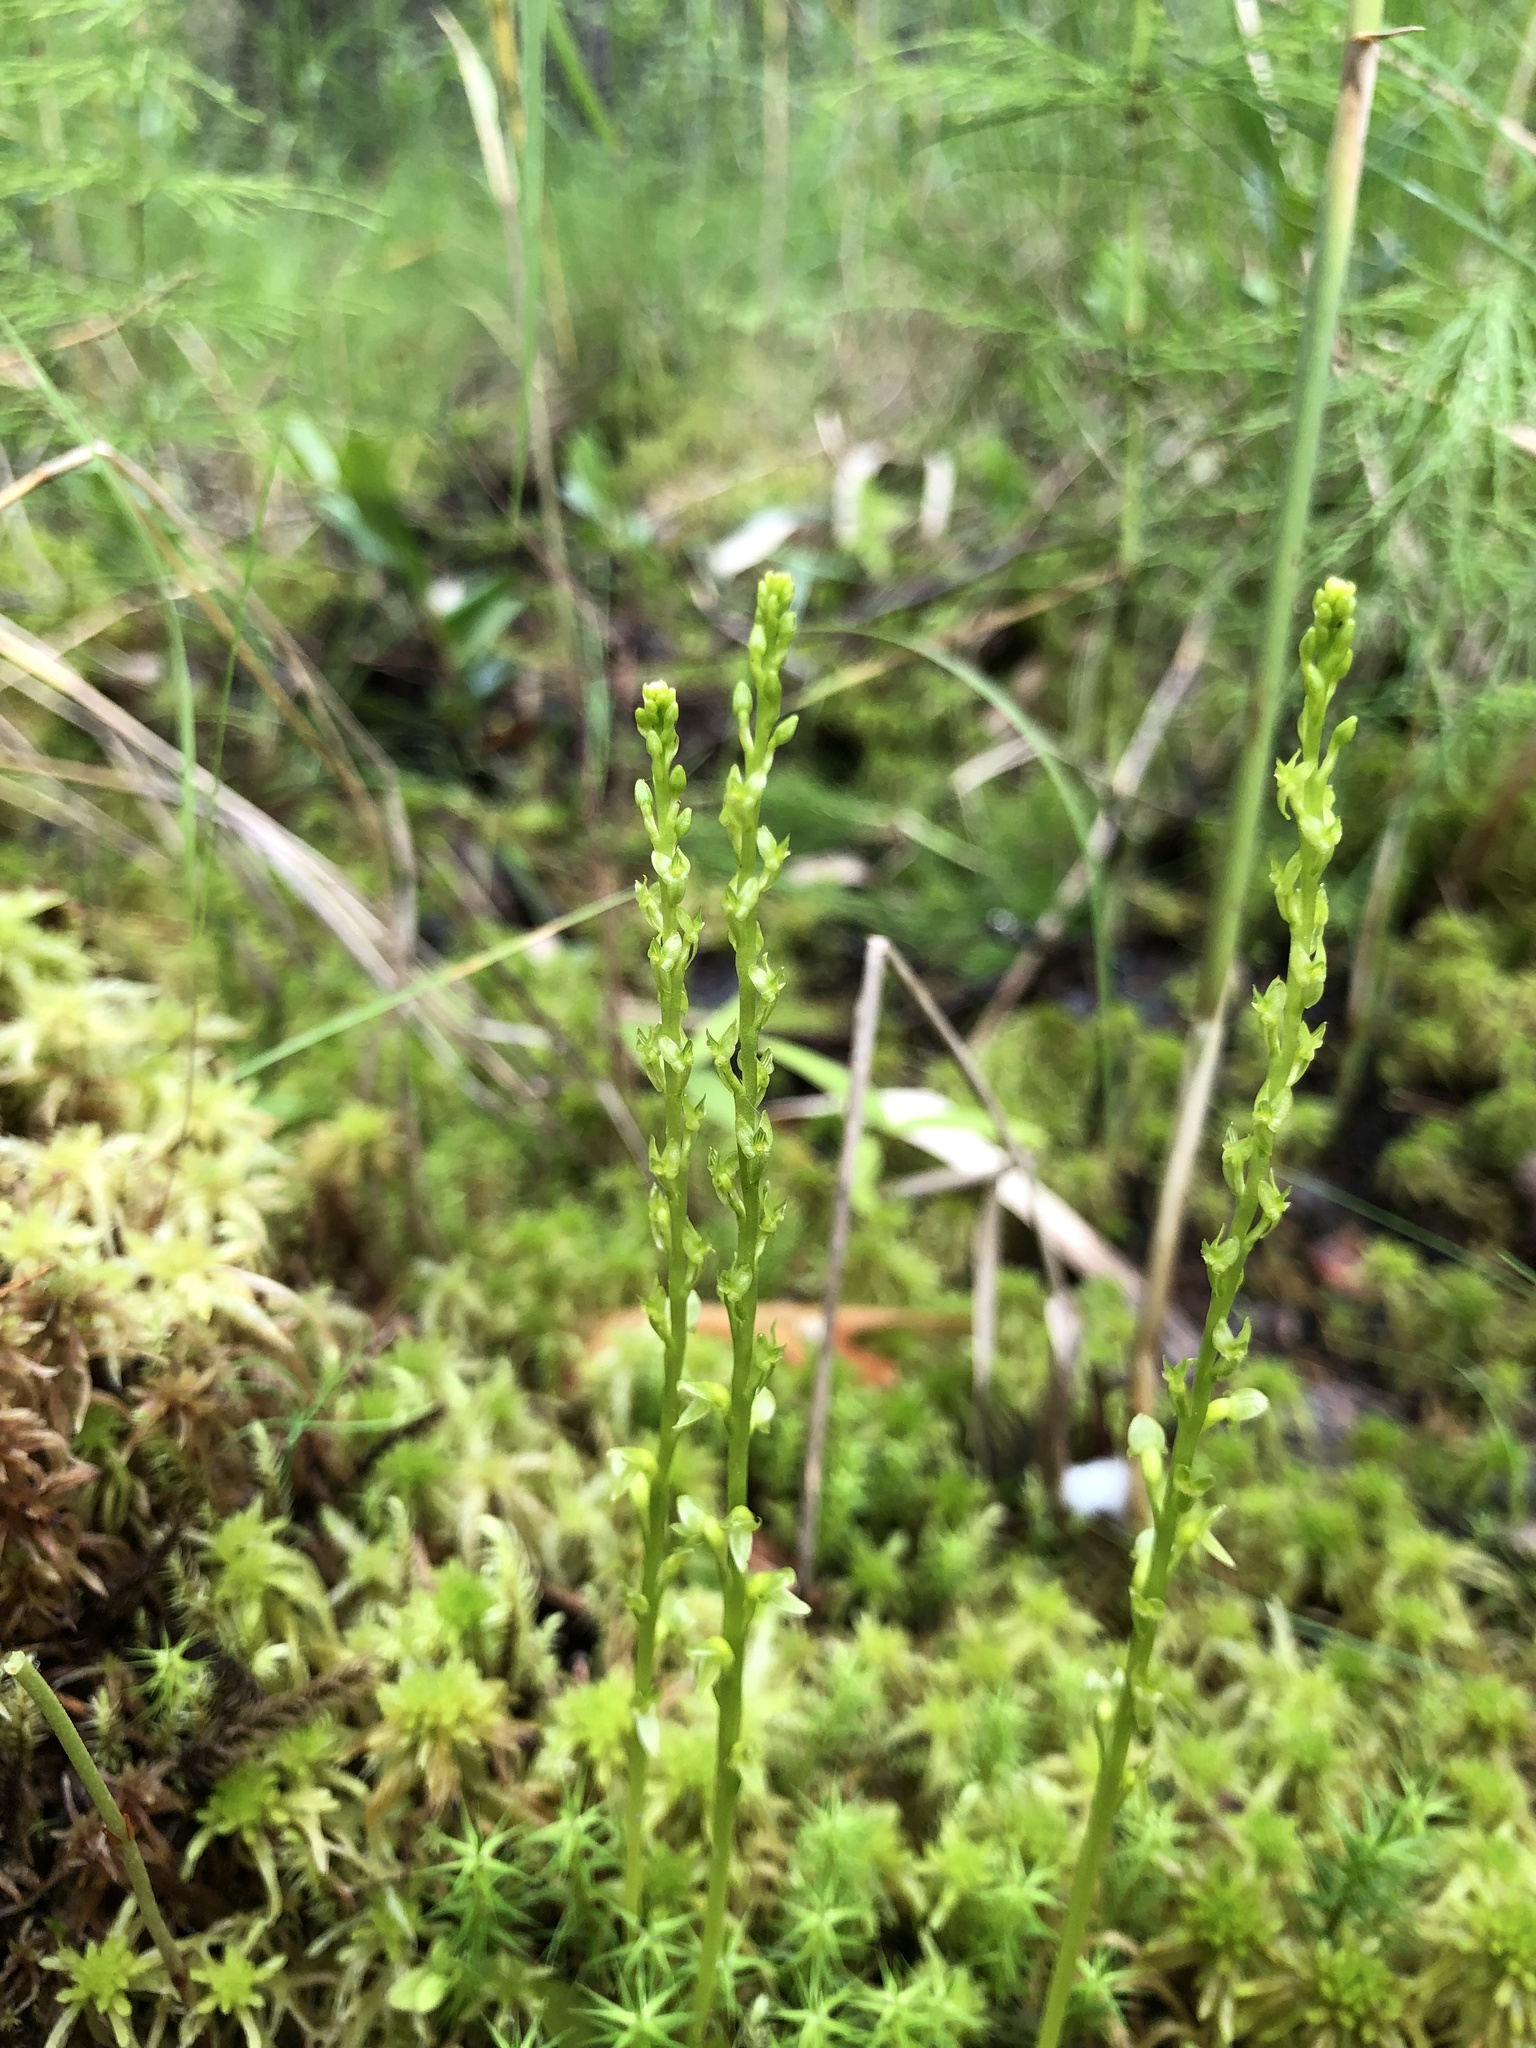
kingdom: Plantae
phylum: Tracheophyta
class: Liliopsida
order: Asparagales
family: Orchidaceae
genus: Hammarbya
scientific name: Hammarbya paludosa
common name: Bog orchid
